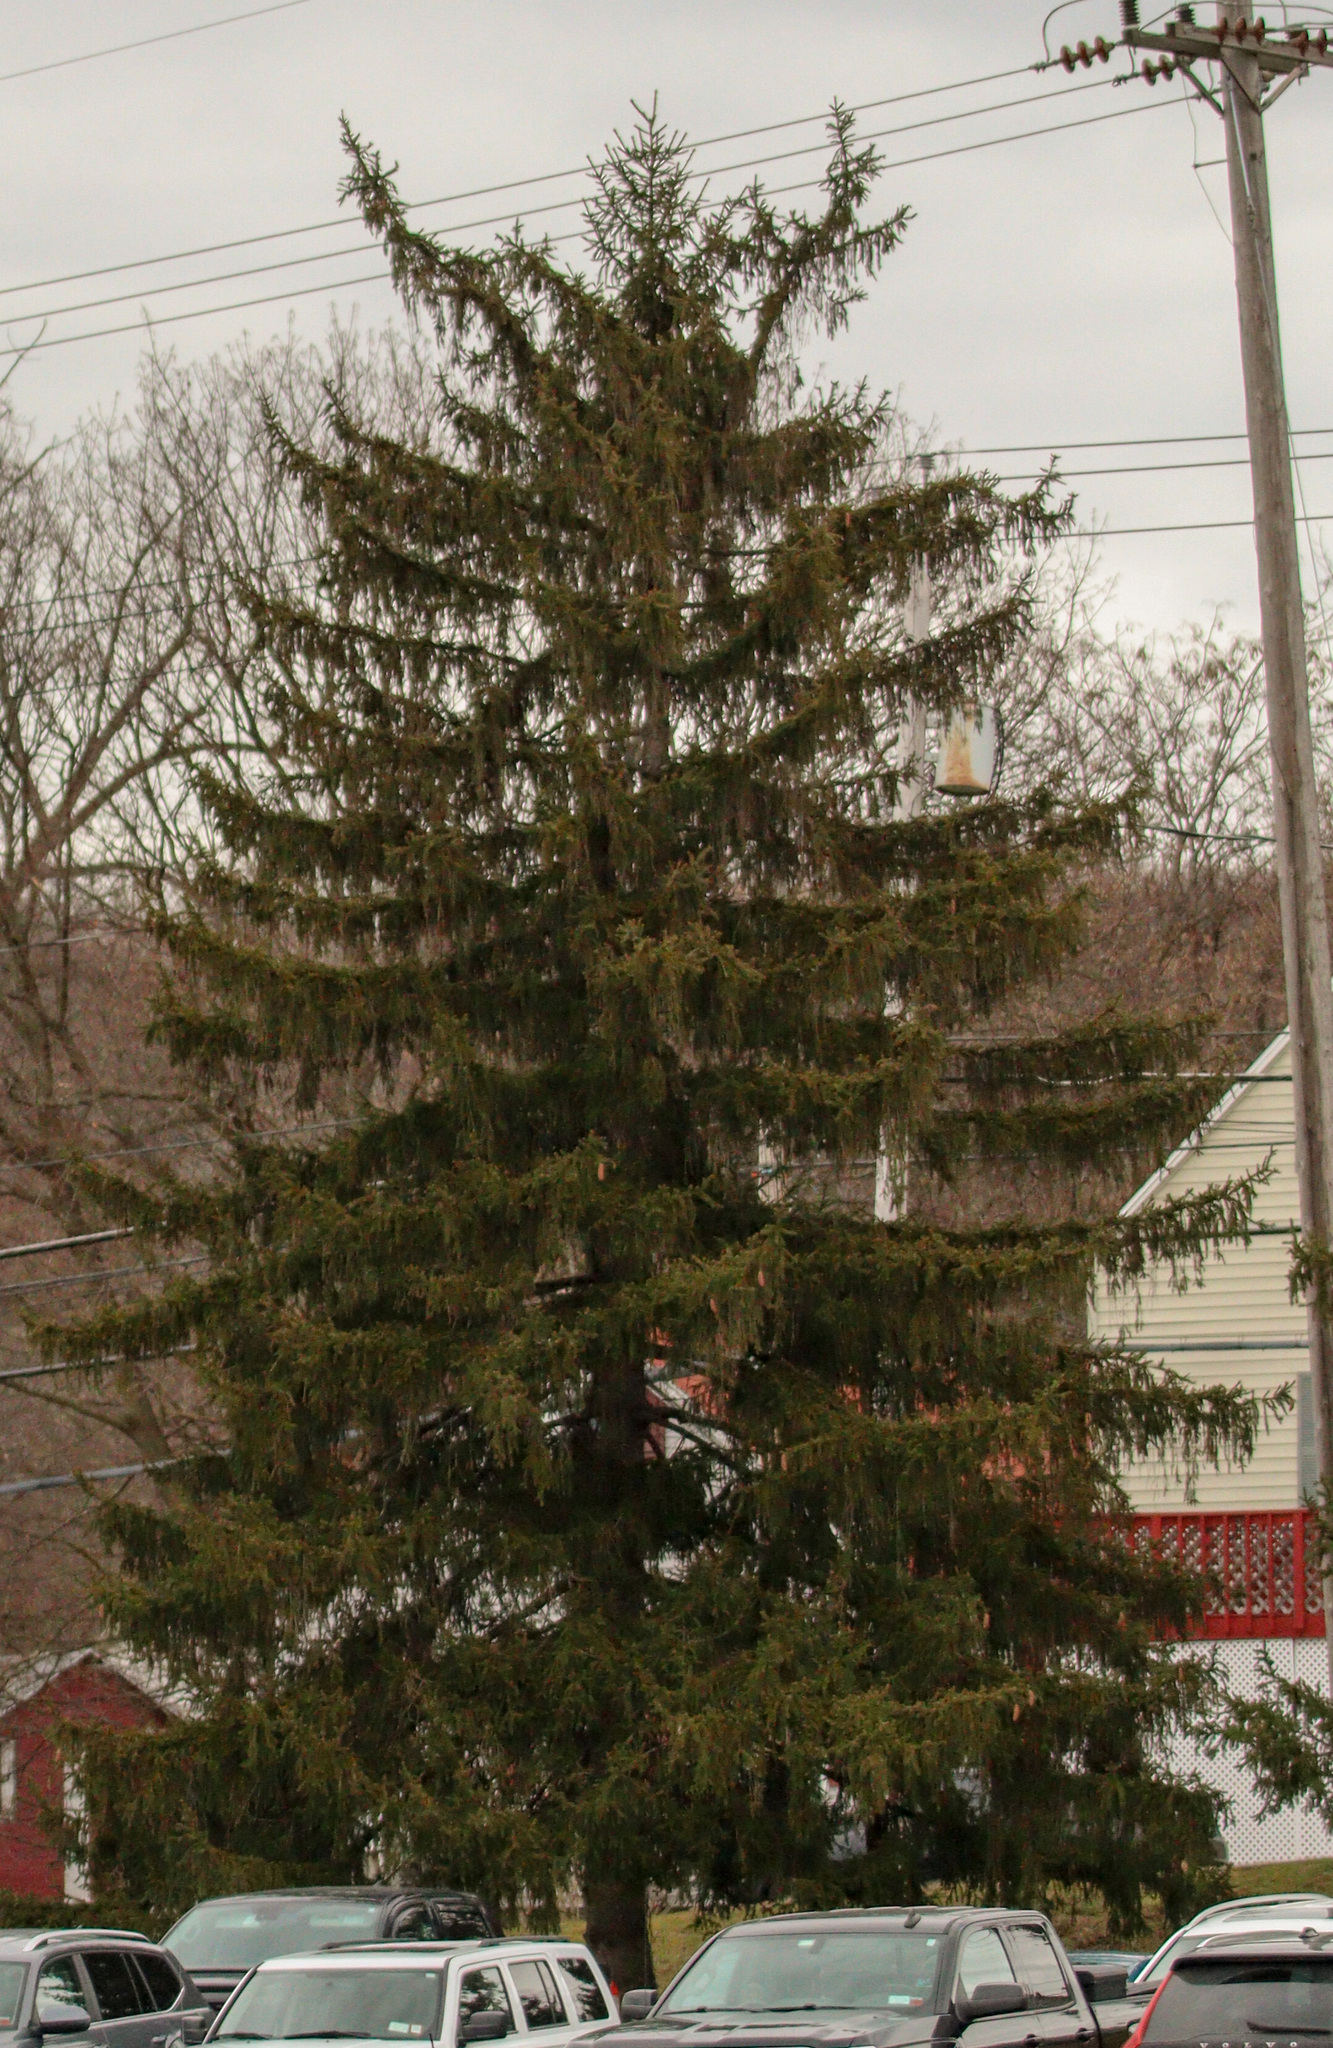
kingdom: Plantae
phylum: Tracheophyta
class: Pinopsida
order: Pinales
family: Pinaceae
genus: Picea
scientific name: Picea abies
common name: Norway spruce
